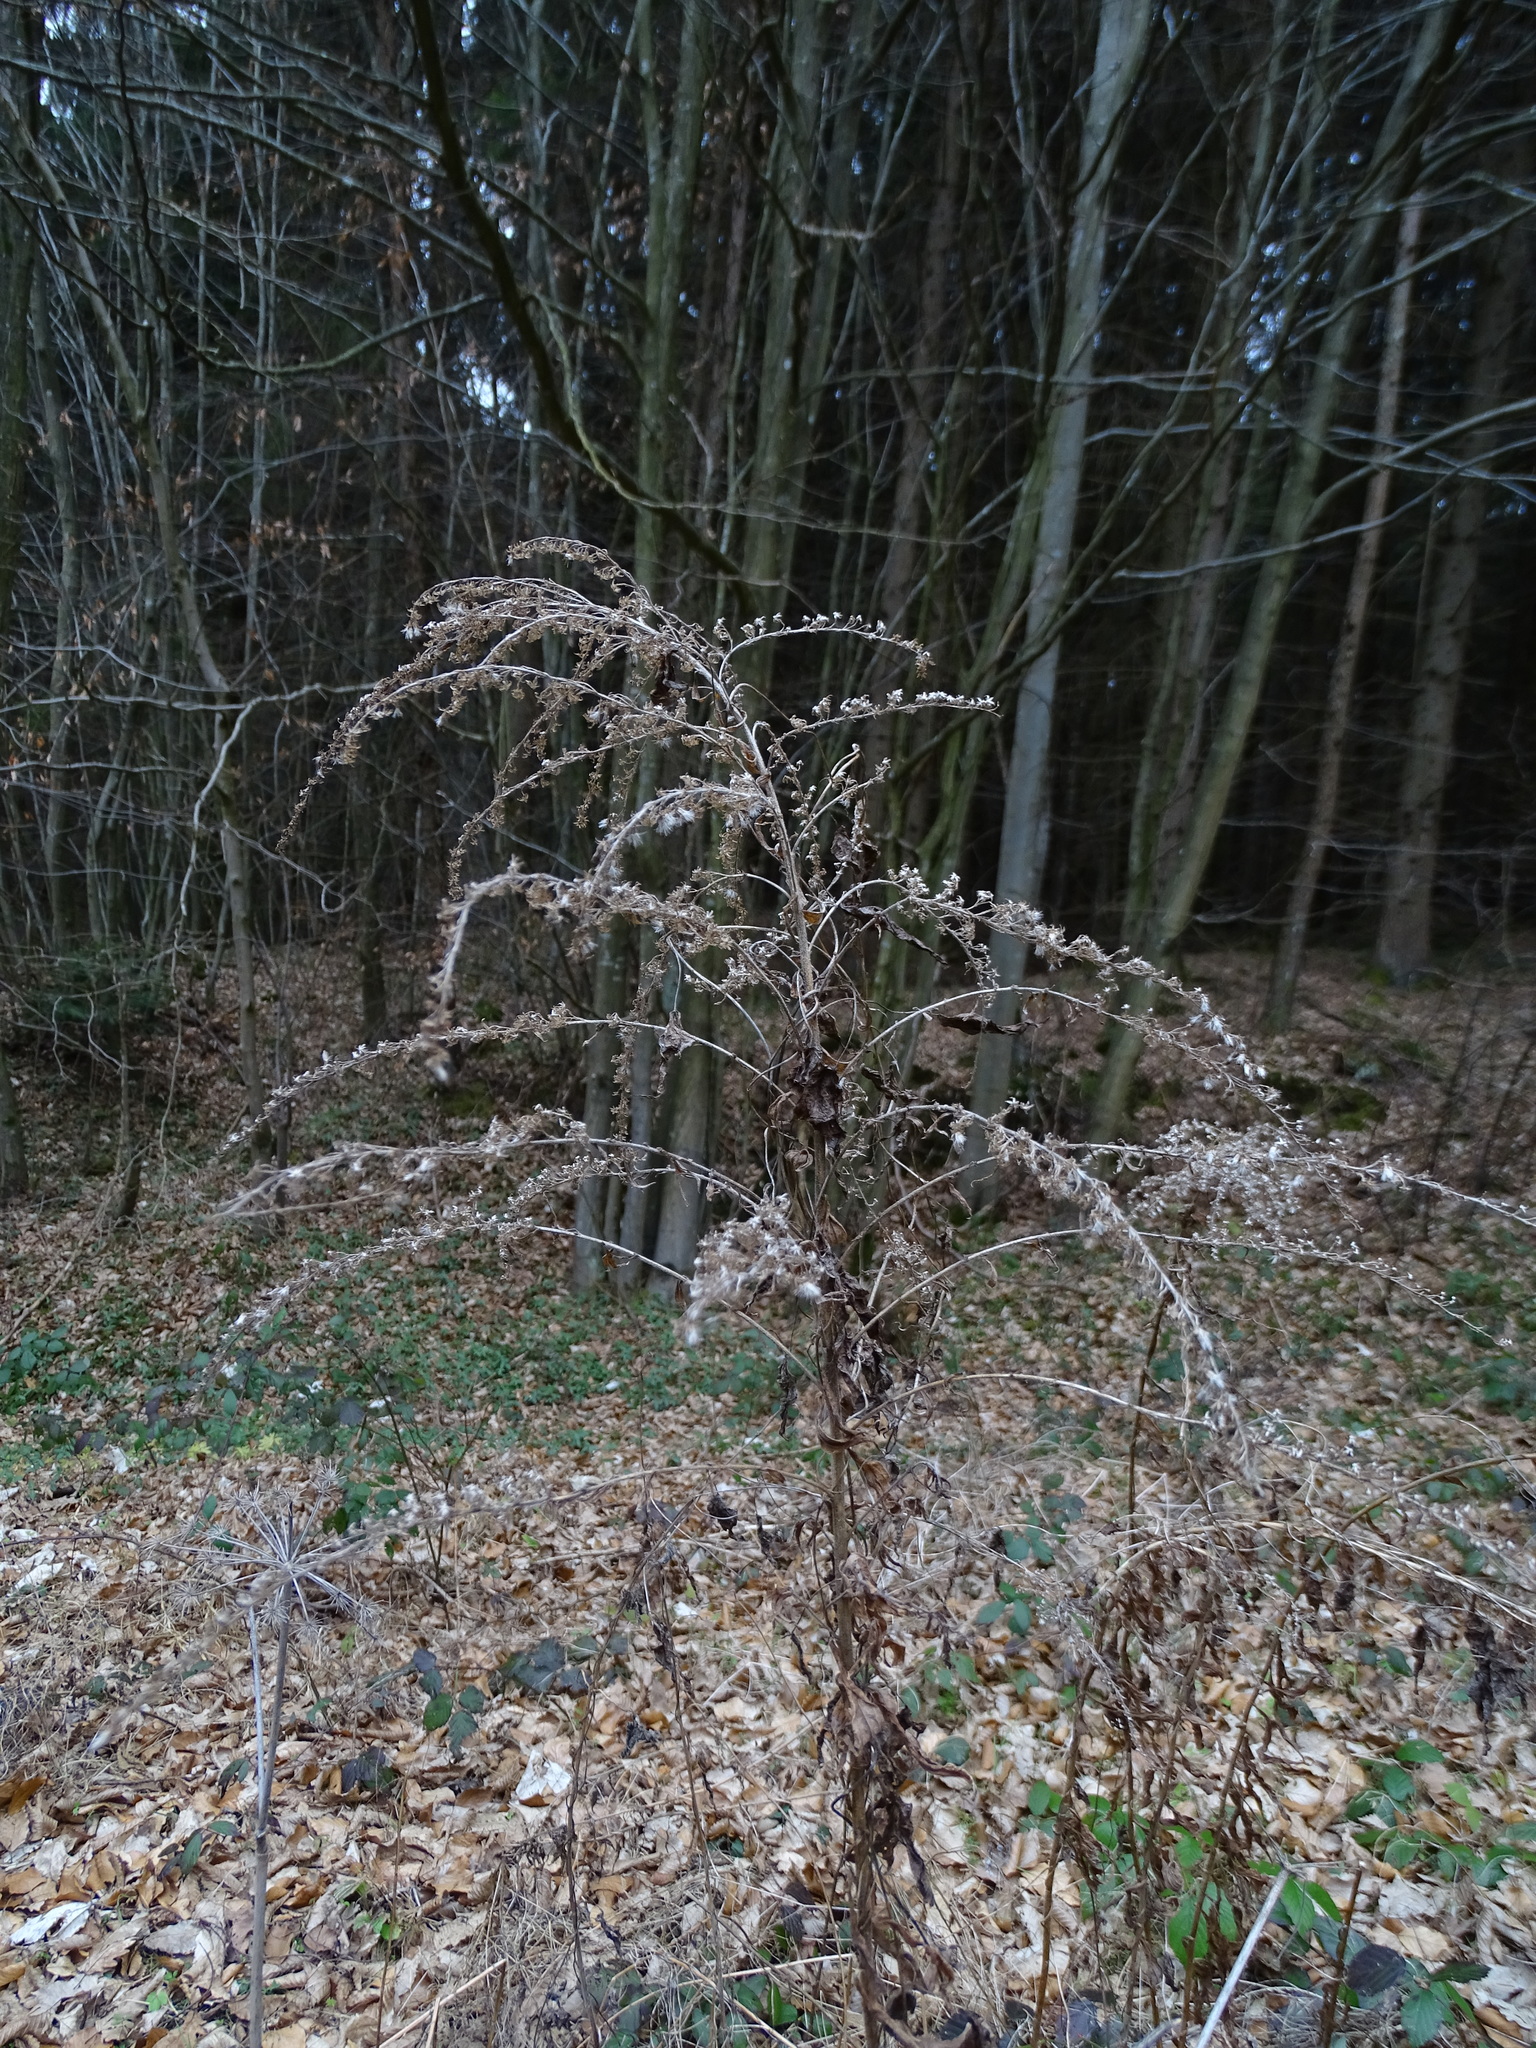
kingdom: Plantae
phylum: Tracheophyta
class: Magnoliopsida
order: Asterales
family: Asteraceae
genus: Solidago
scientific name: Solidago canadensis
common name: Canada goldenrod
